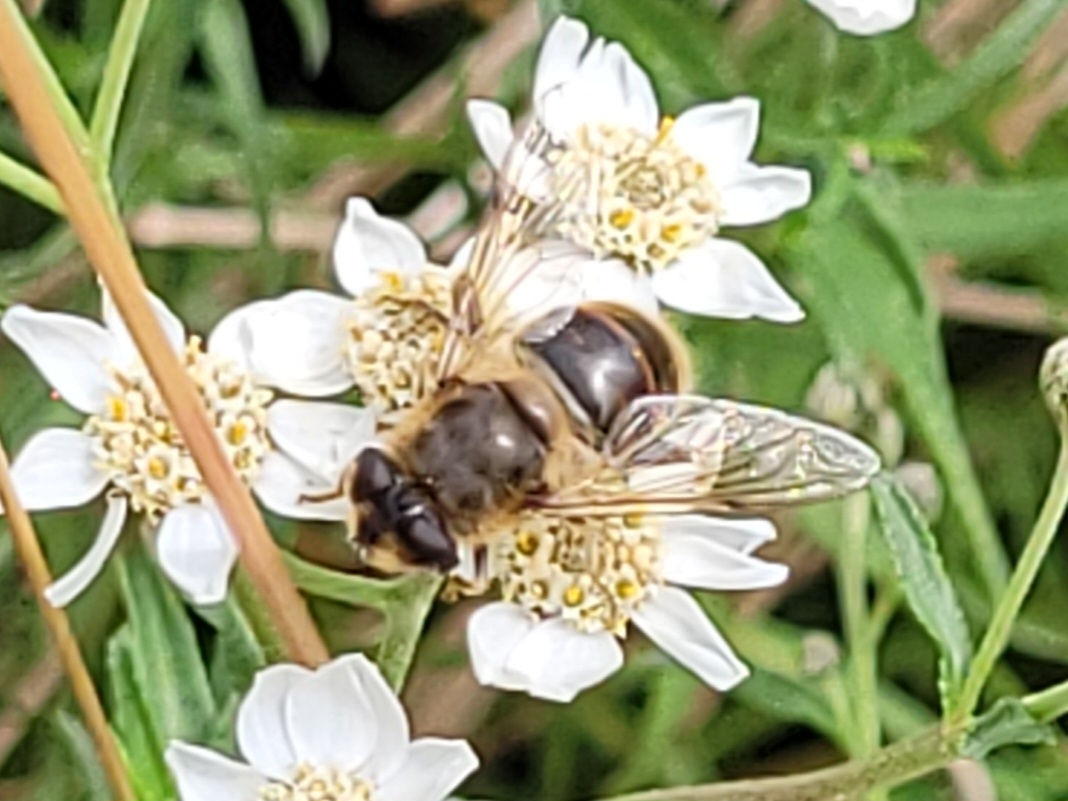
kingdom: Animalia
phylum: Arthropoda
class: Insecta
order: Diptera
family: Syrphidae
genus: Eristalis
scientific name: Eristalis pertinax
